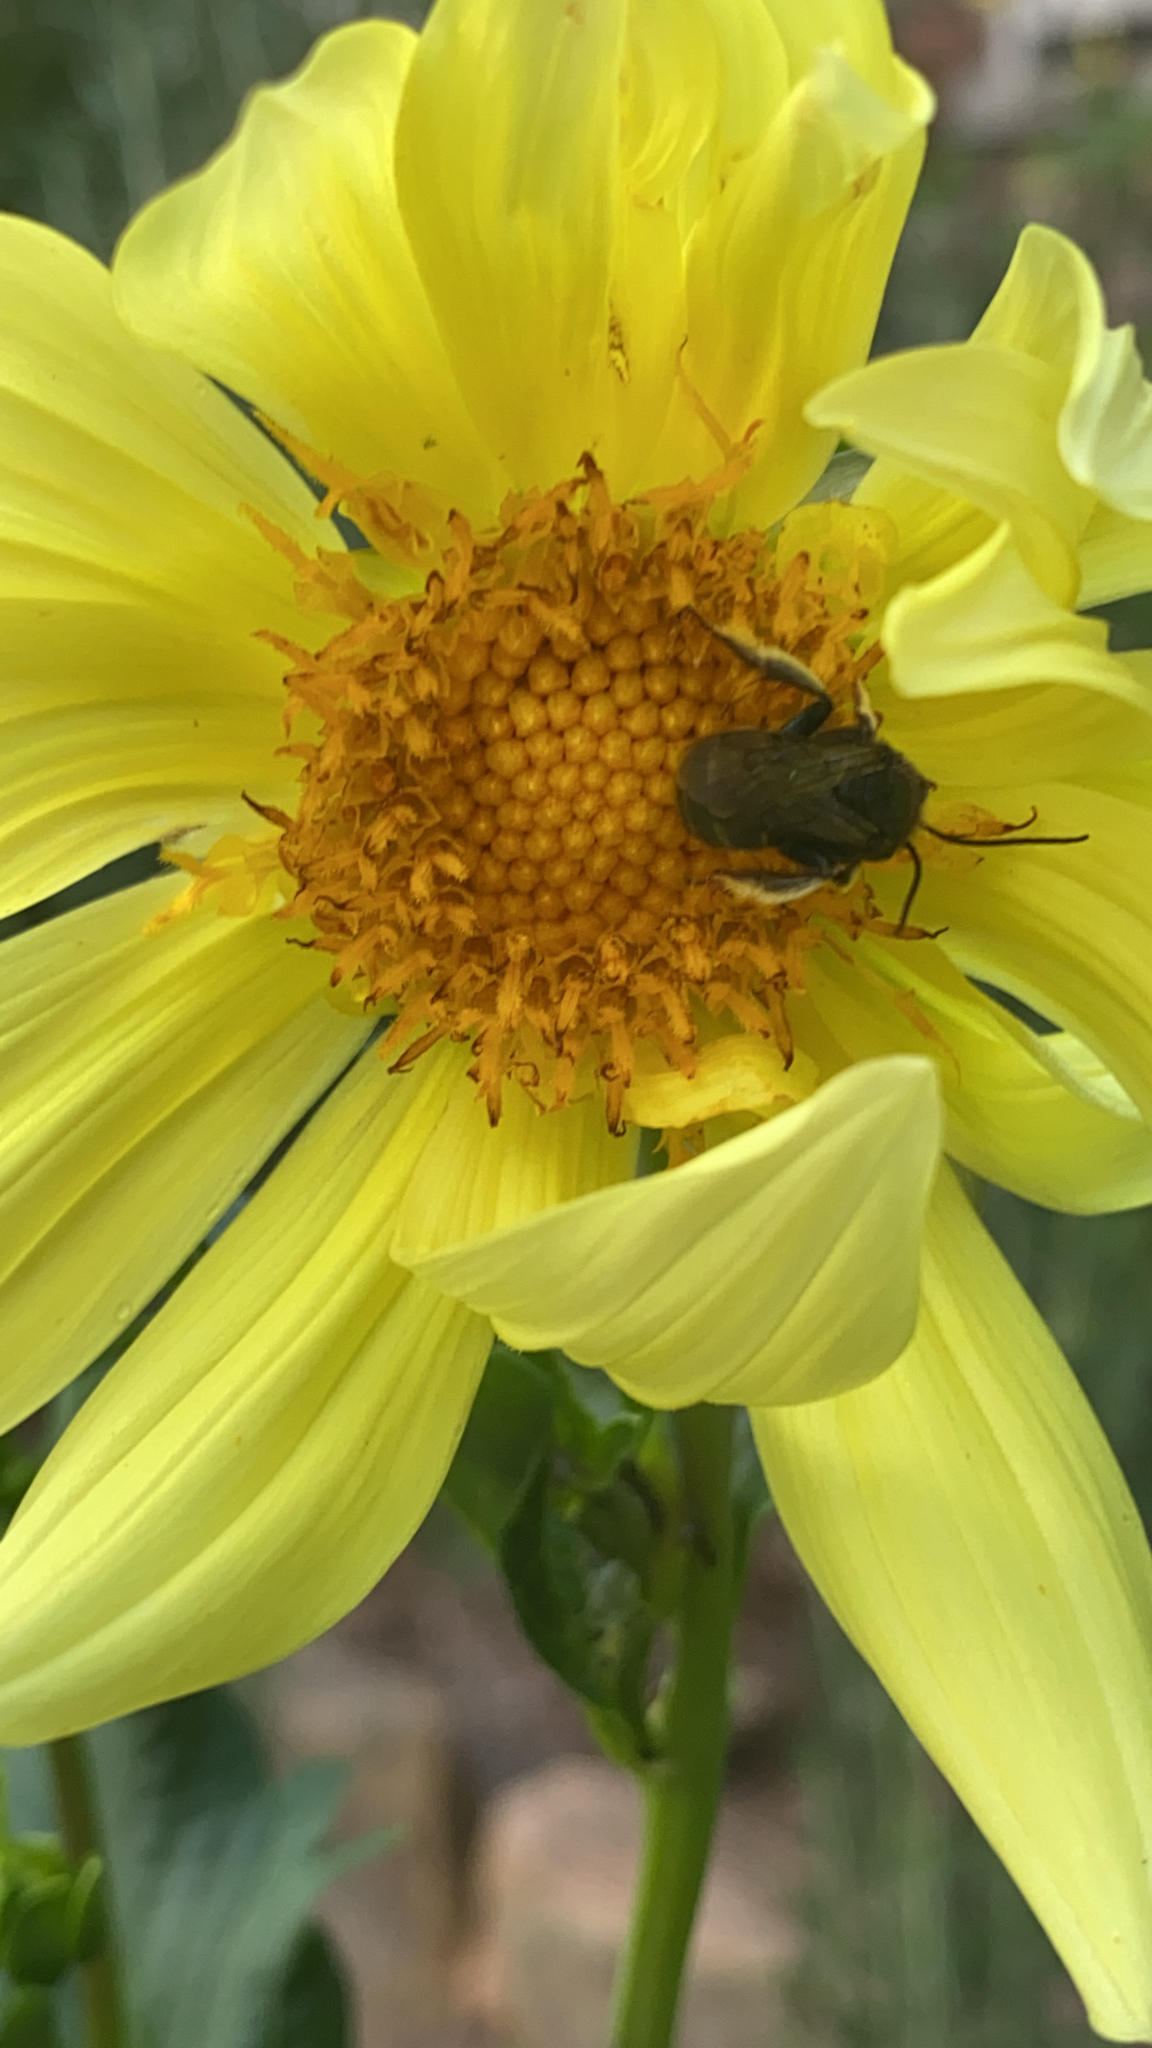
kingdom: Animalia
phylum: Arthropoda
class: Insecta
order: Hymenoptera
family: Apidae
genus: Melissodes
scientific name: Melissodes bimaculatus
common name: Two-spotted long-horned bee
